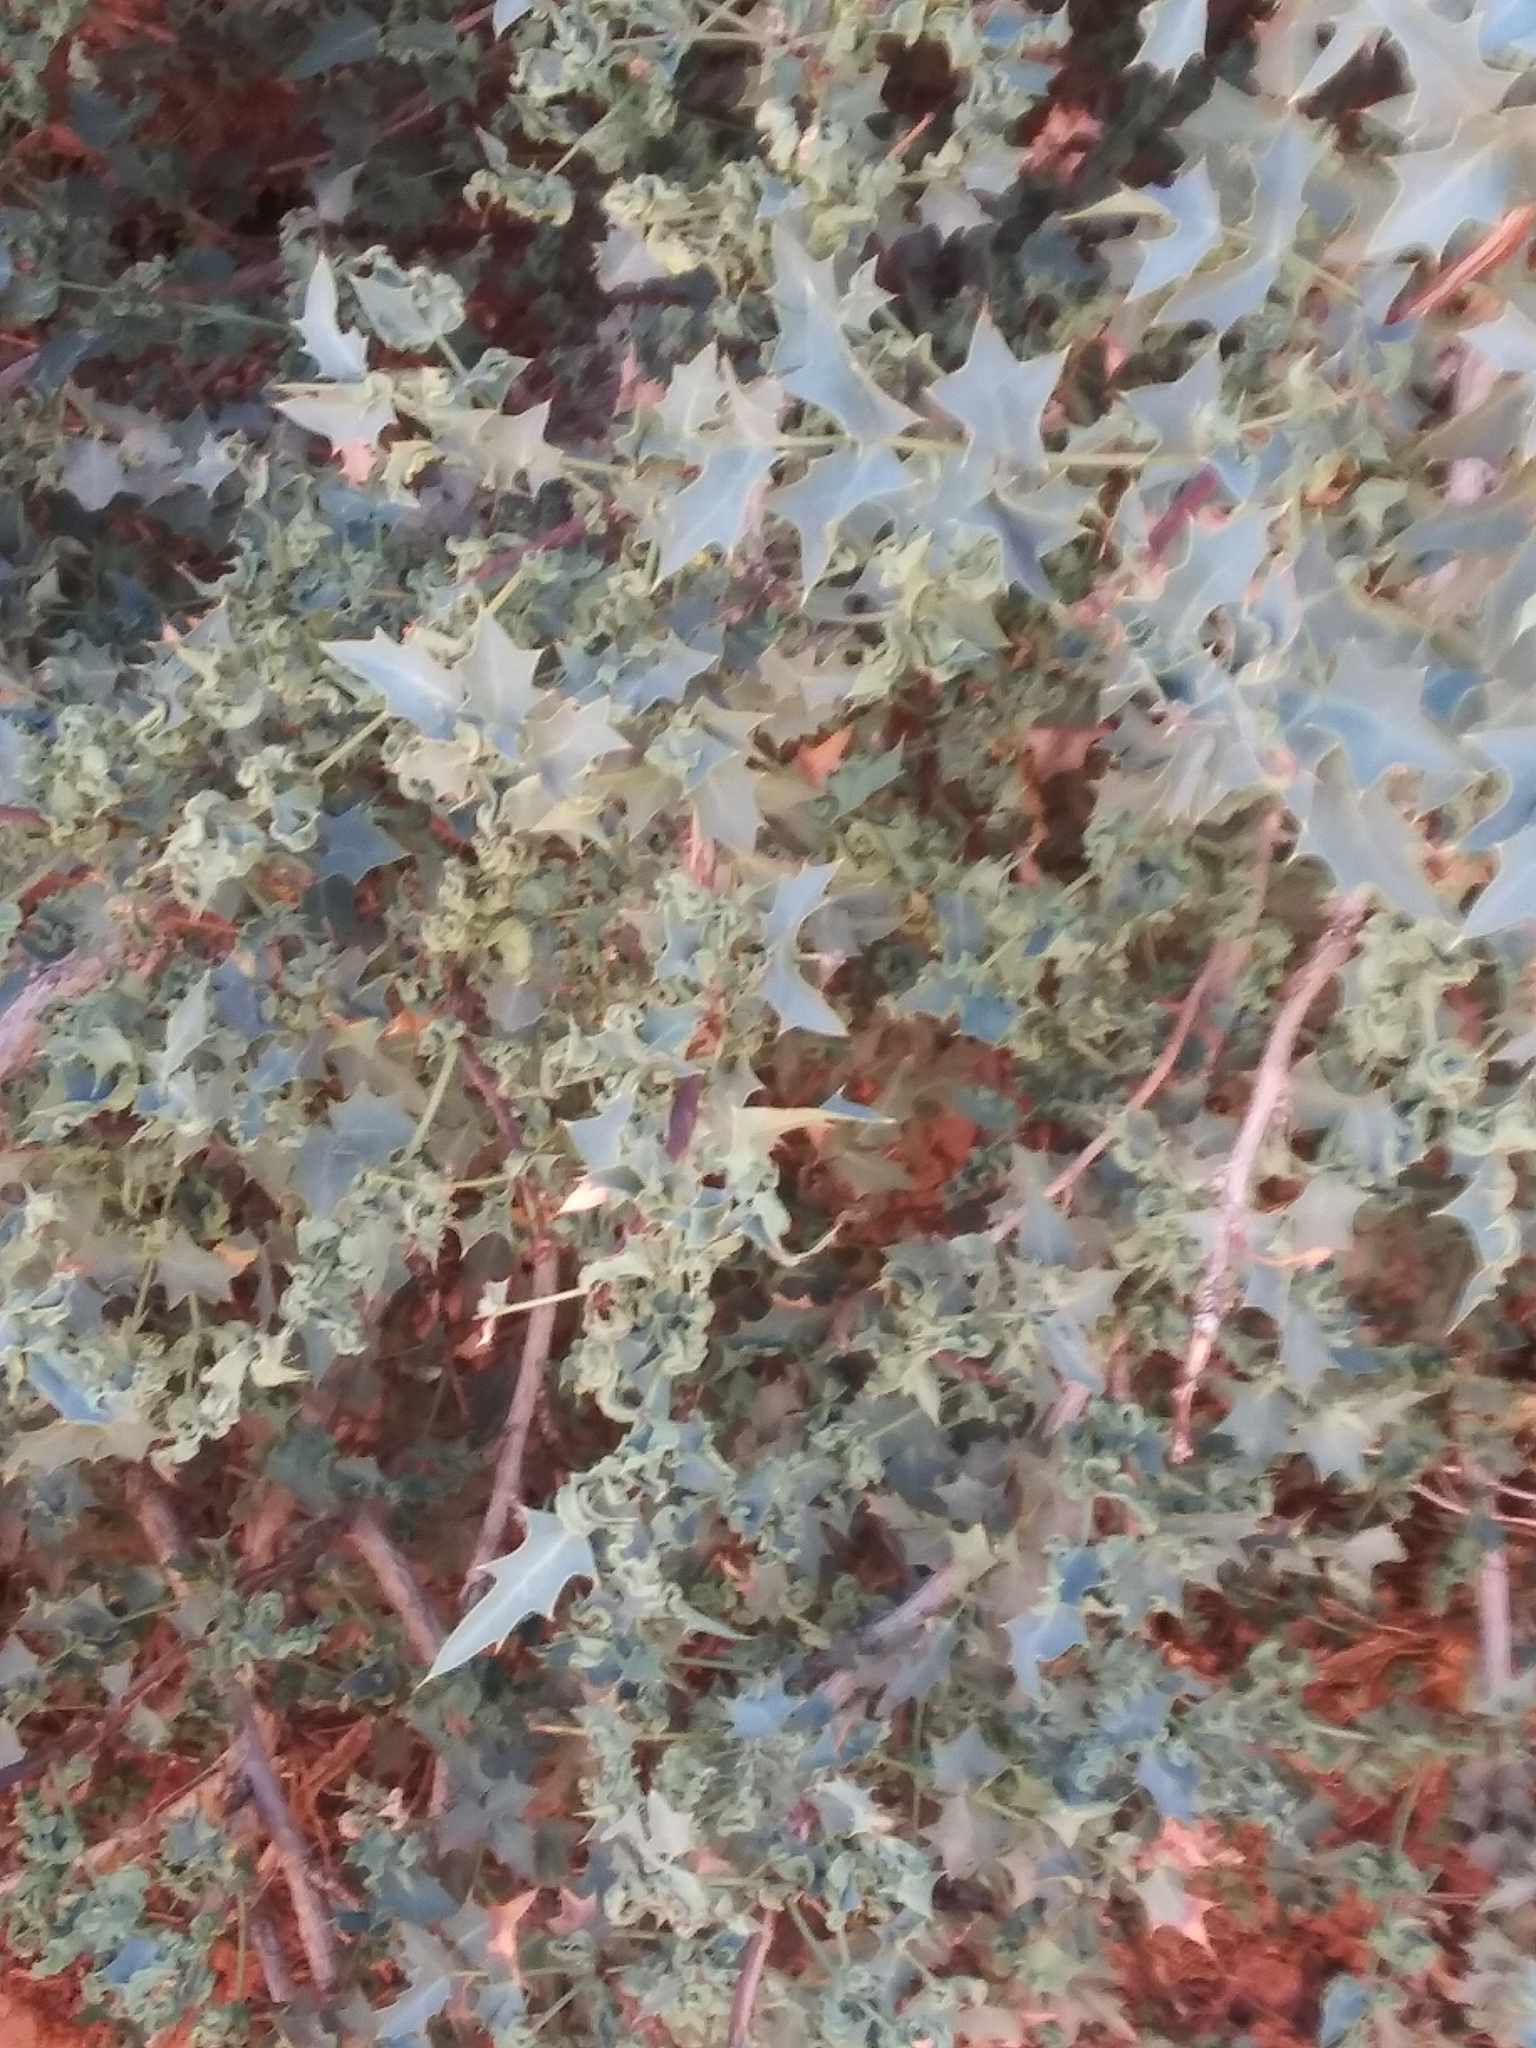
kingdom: Plantae
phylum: Tracheophyta
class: Magnoliopsida
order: Ranunculales
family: Berberidaceae
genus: Alloberberis
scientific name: Alloberberis fremontii
